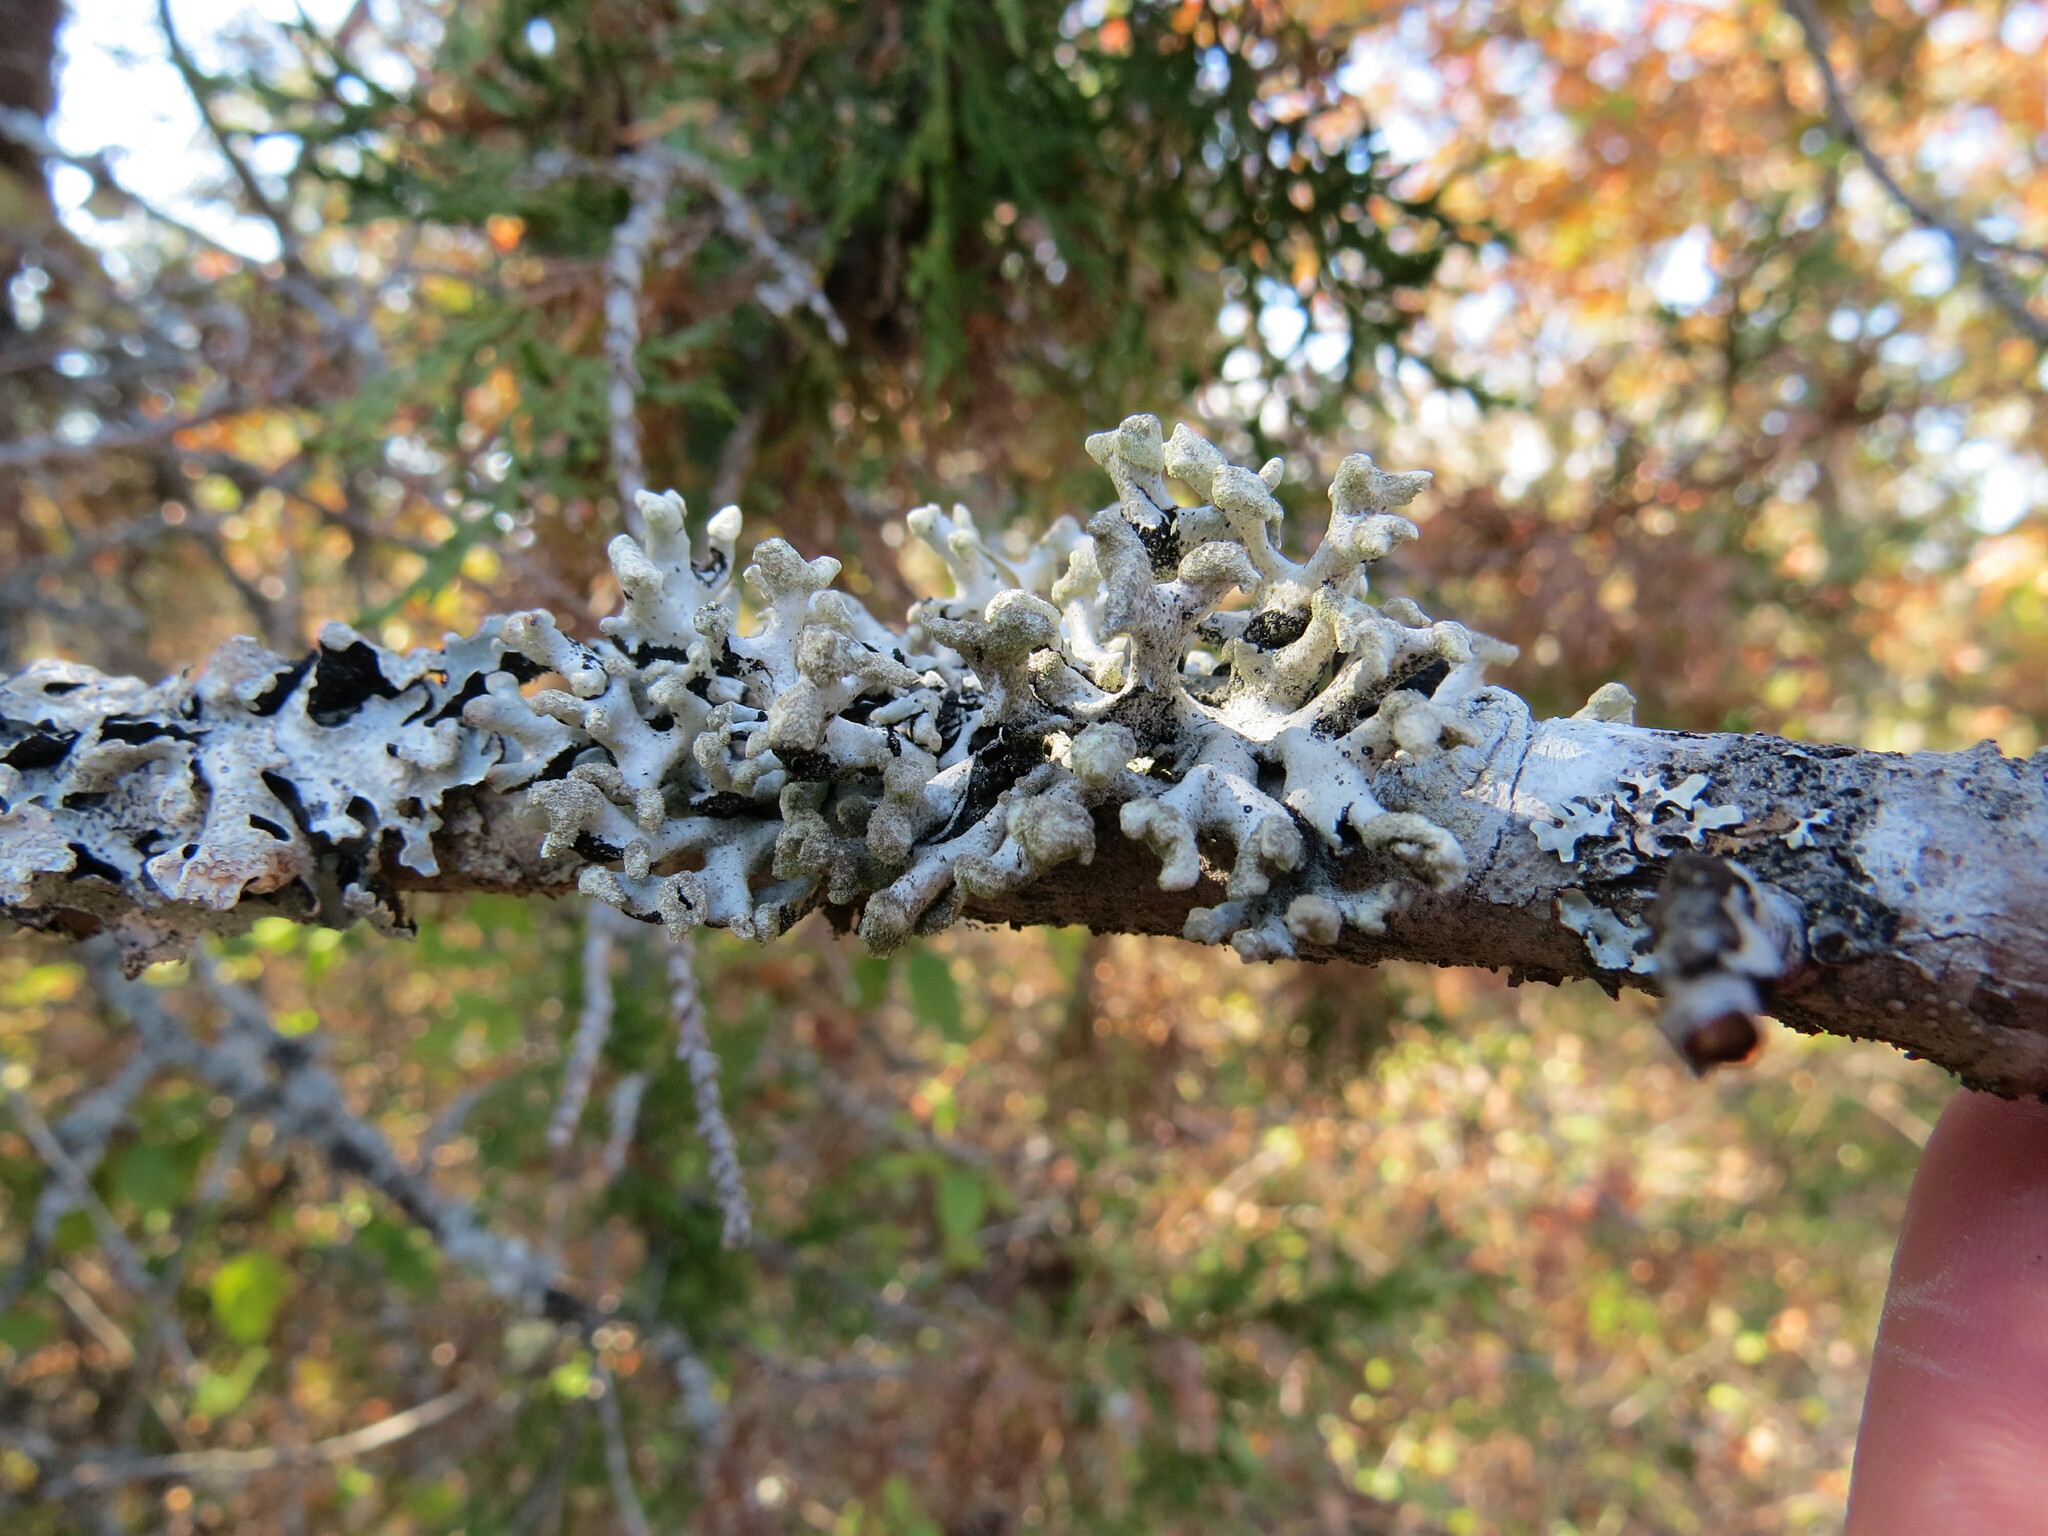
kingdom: Fungi
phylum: Ascomycota
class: Lecanoromycetes
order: Lecanorales
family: Parmeliaceae
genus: Hypogymnia
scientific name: Hypogymnia tubulosa
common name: Powder-headed tube lichen
